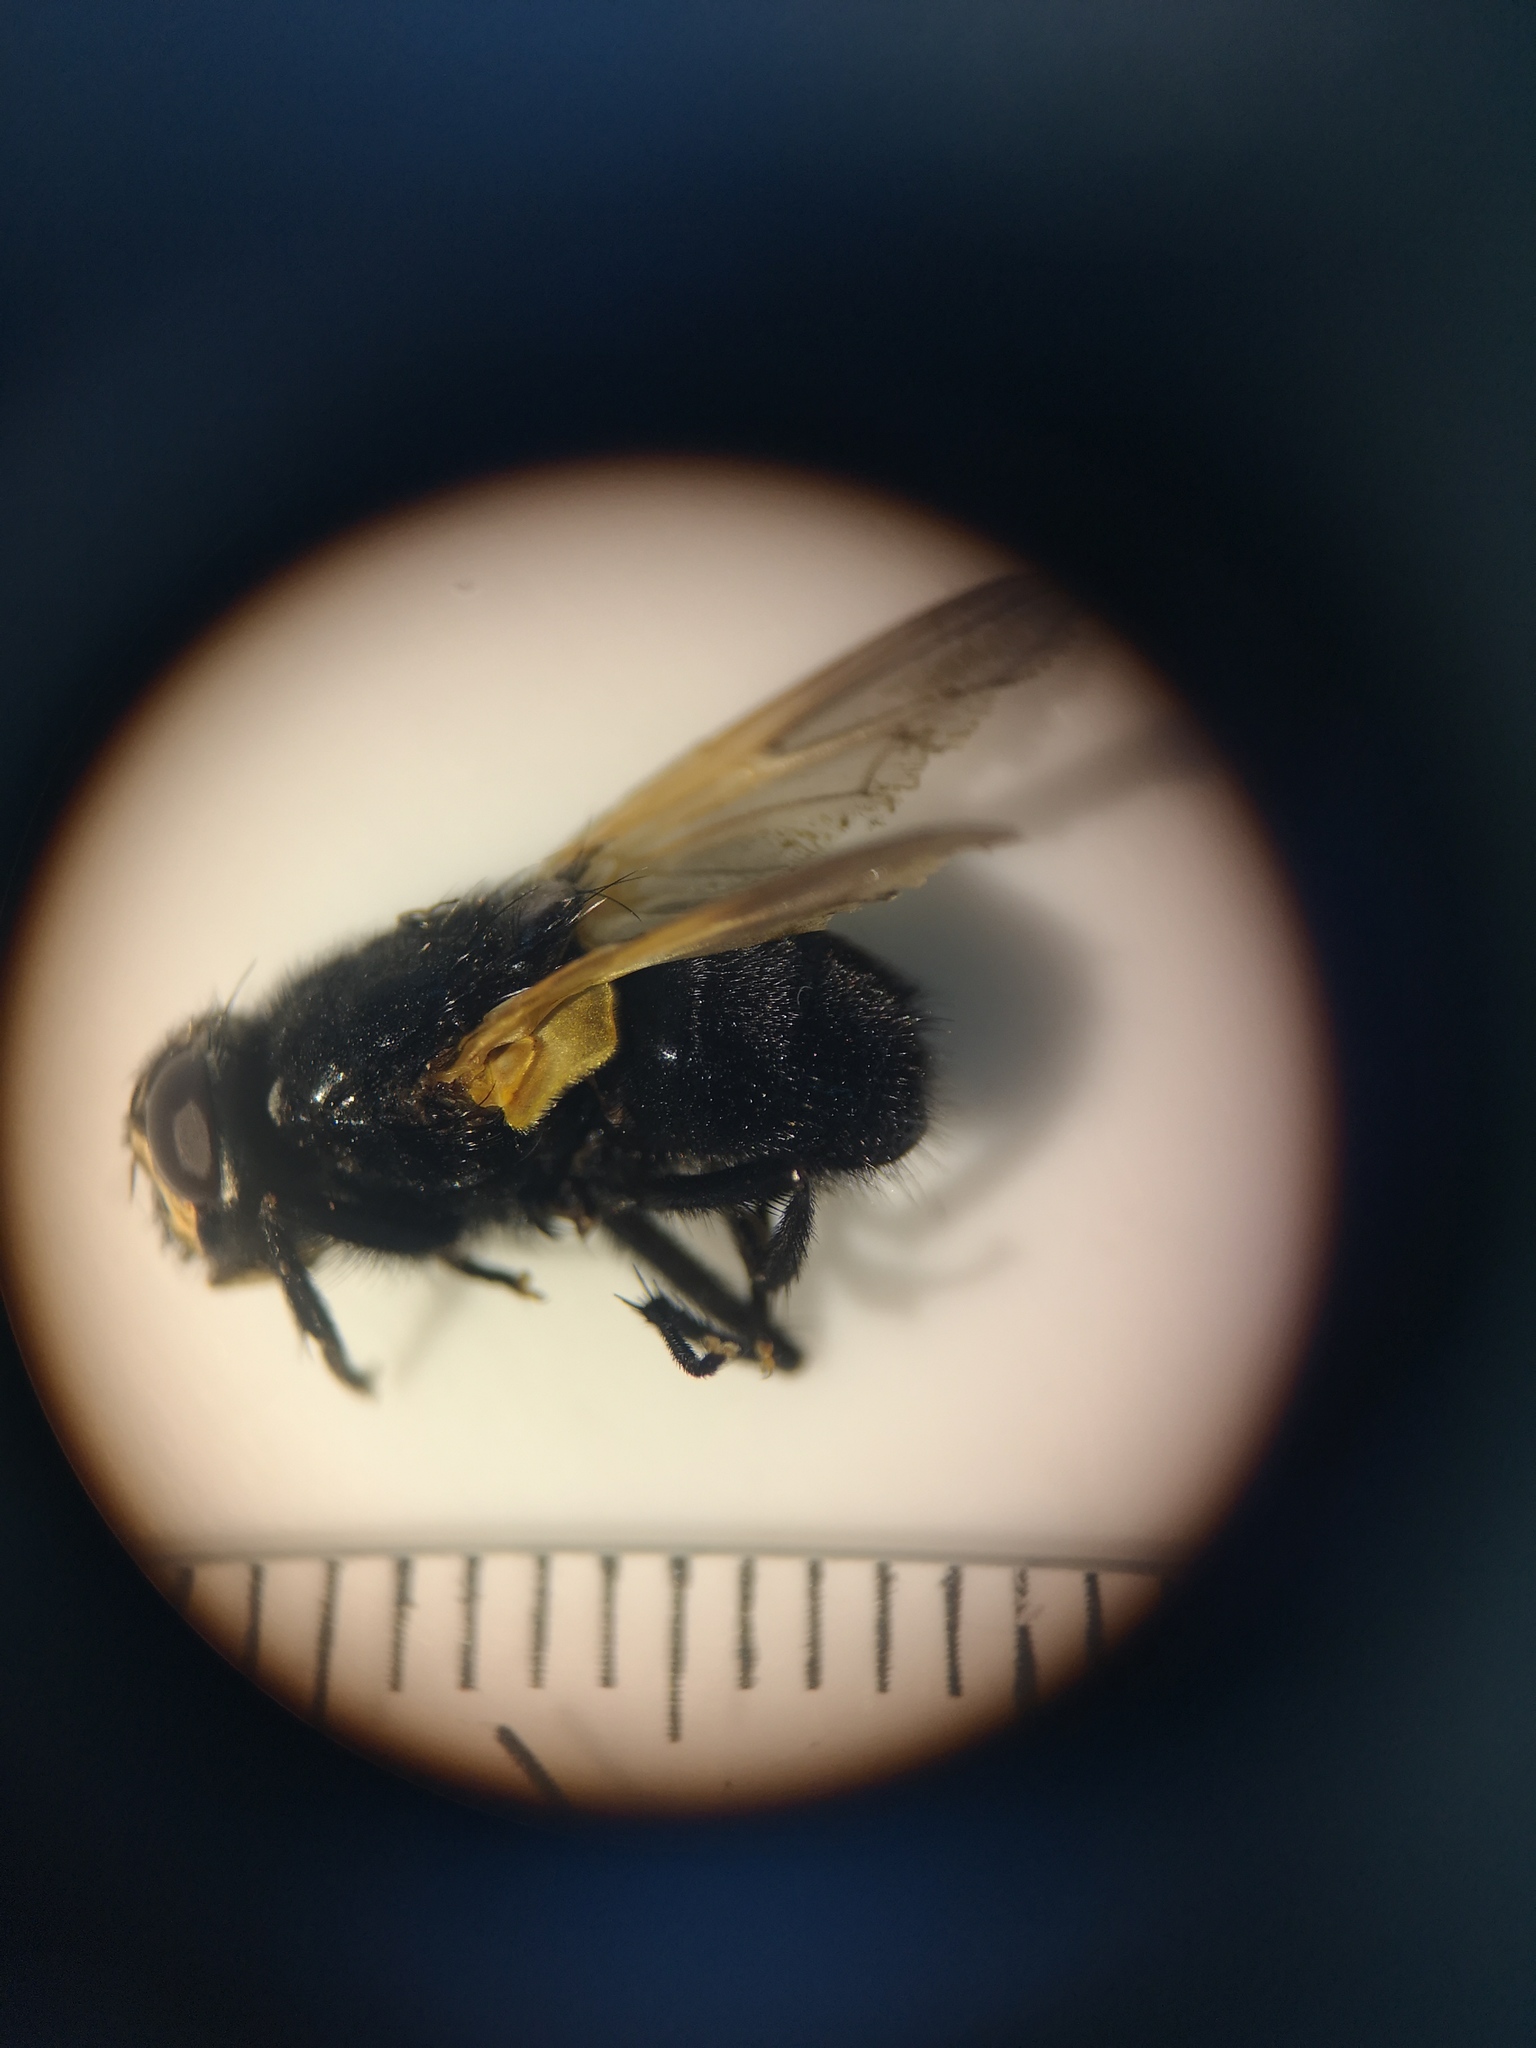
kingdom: Animalia
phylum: Arthropoda
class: Insecta
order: Diptera
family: Muscidae
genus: Mesembrina
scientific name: Mesembrina meridiana
